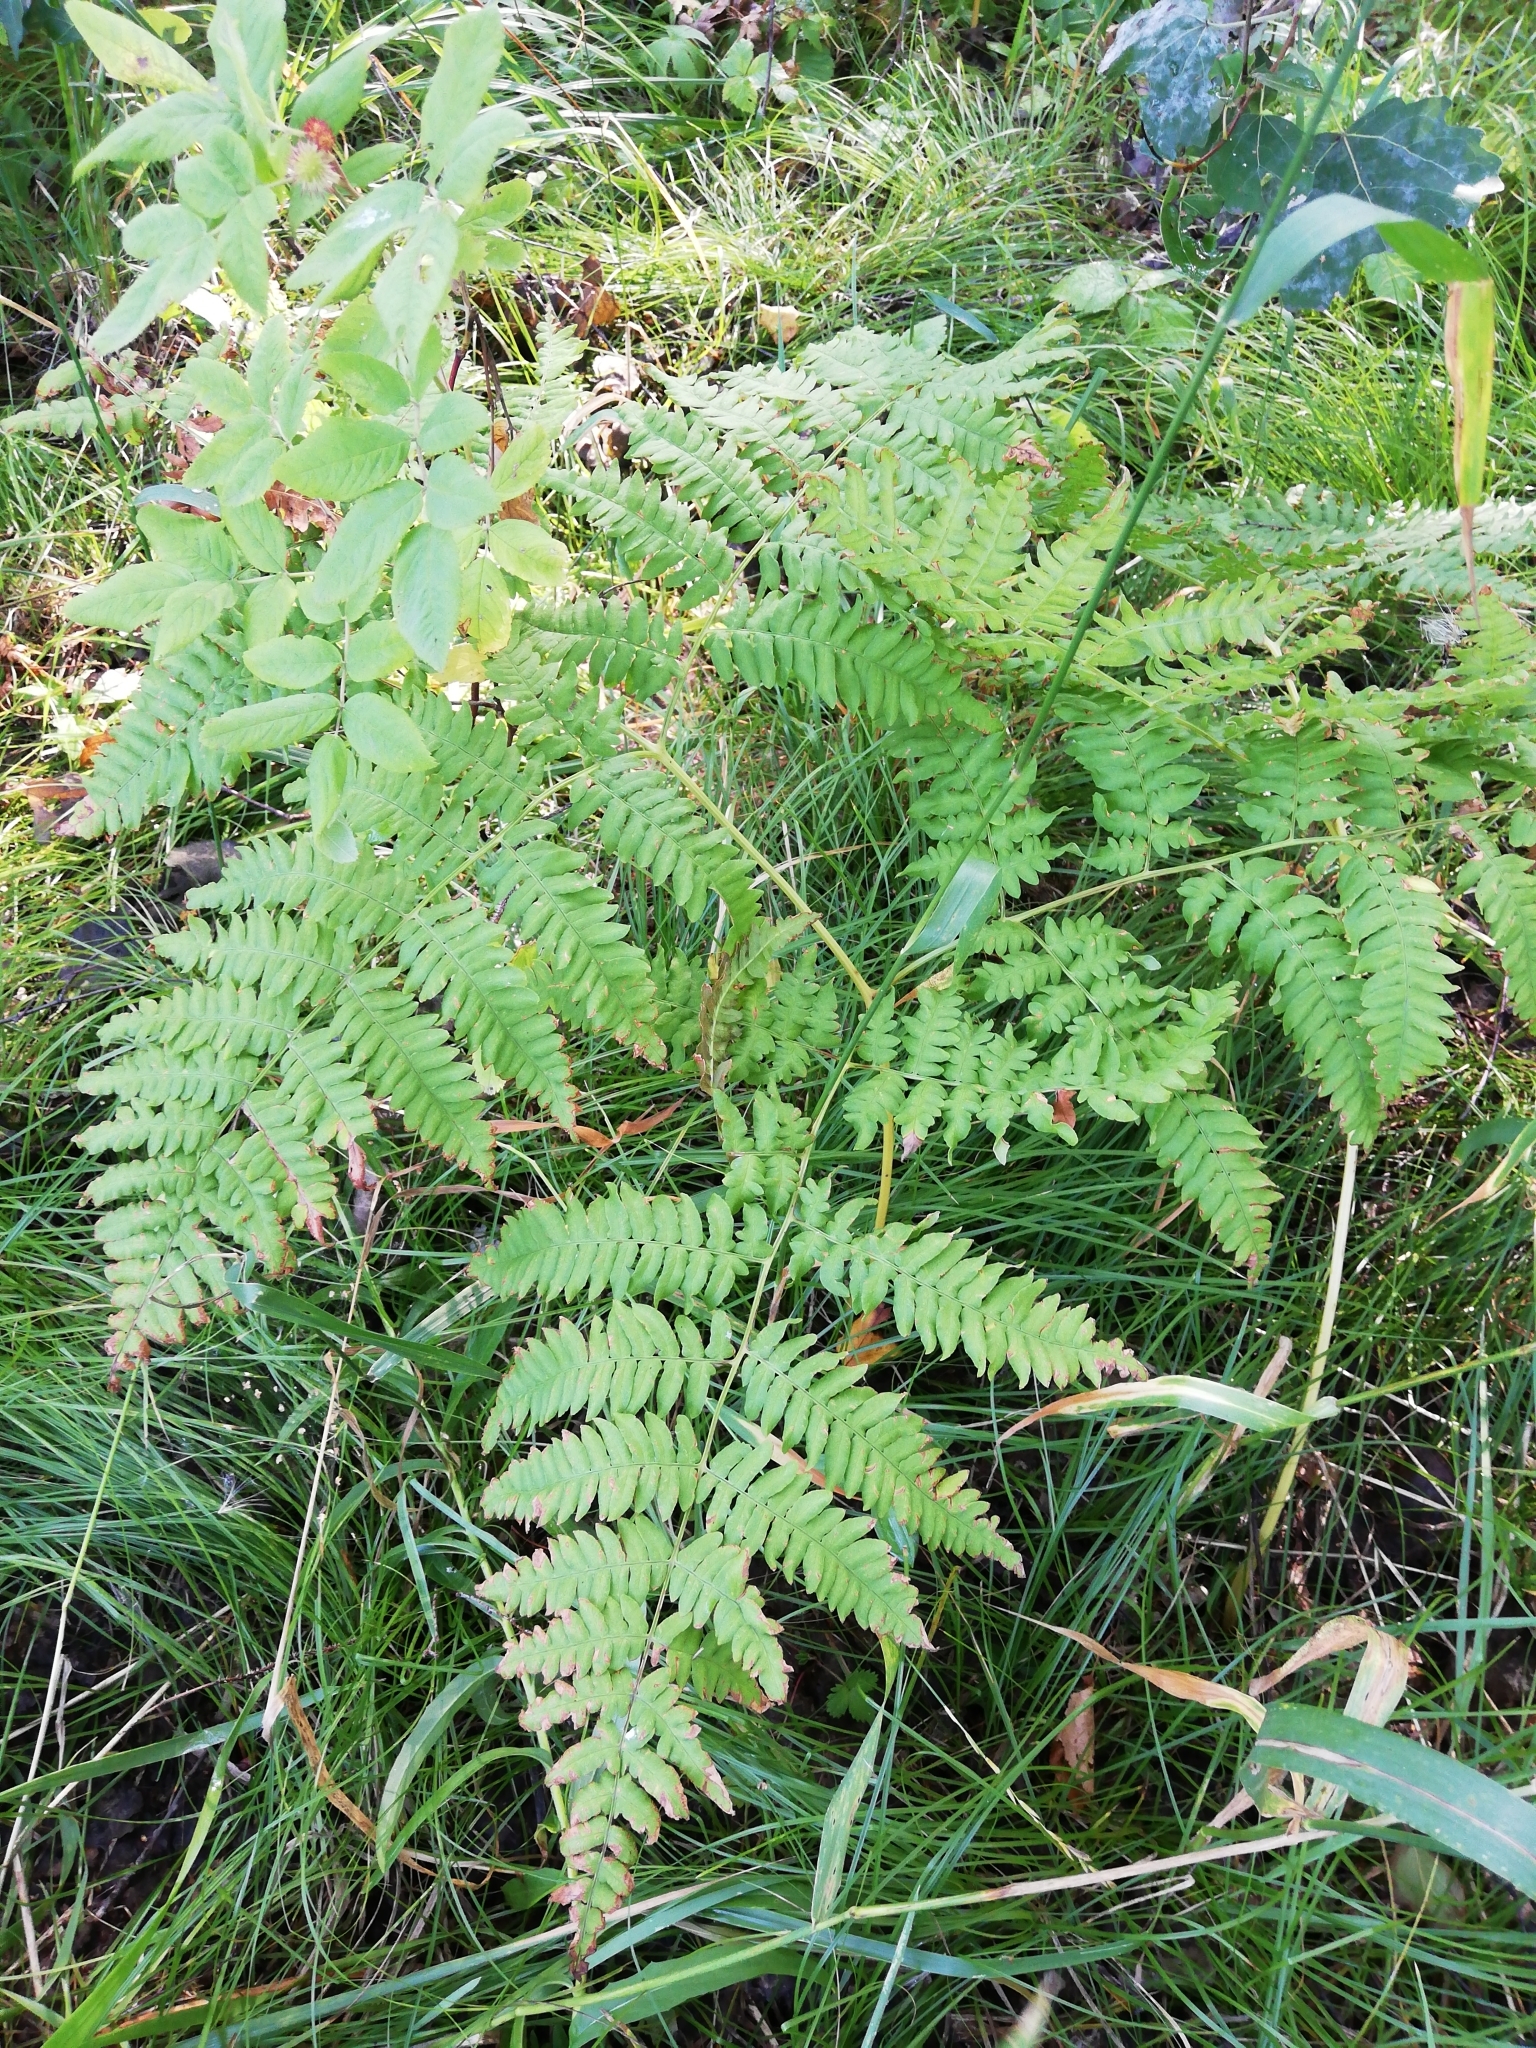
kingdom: Plantae
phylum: Tracheophyta
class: Polypodiopsida
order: Polypodiales
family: Dennstaedtiaceae
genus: Pteridium
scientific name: Pteridium aquilinum
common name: Bracken
